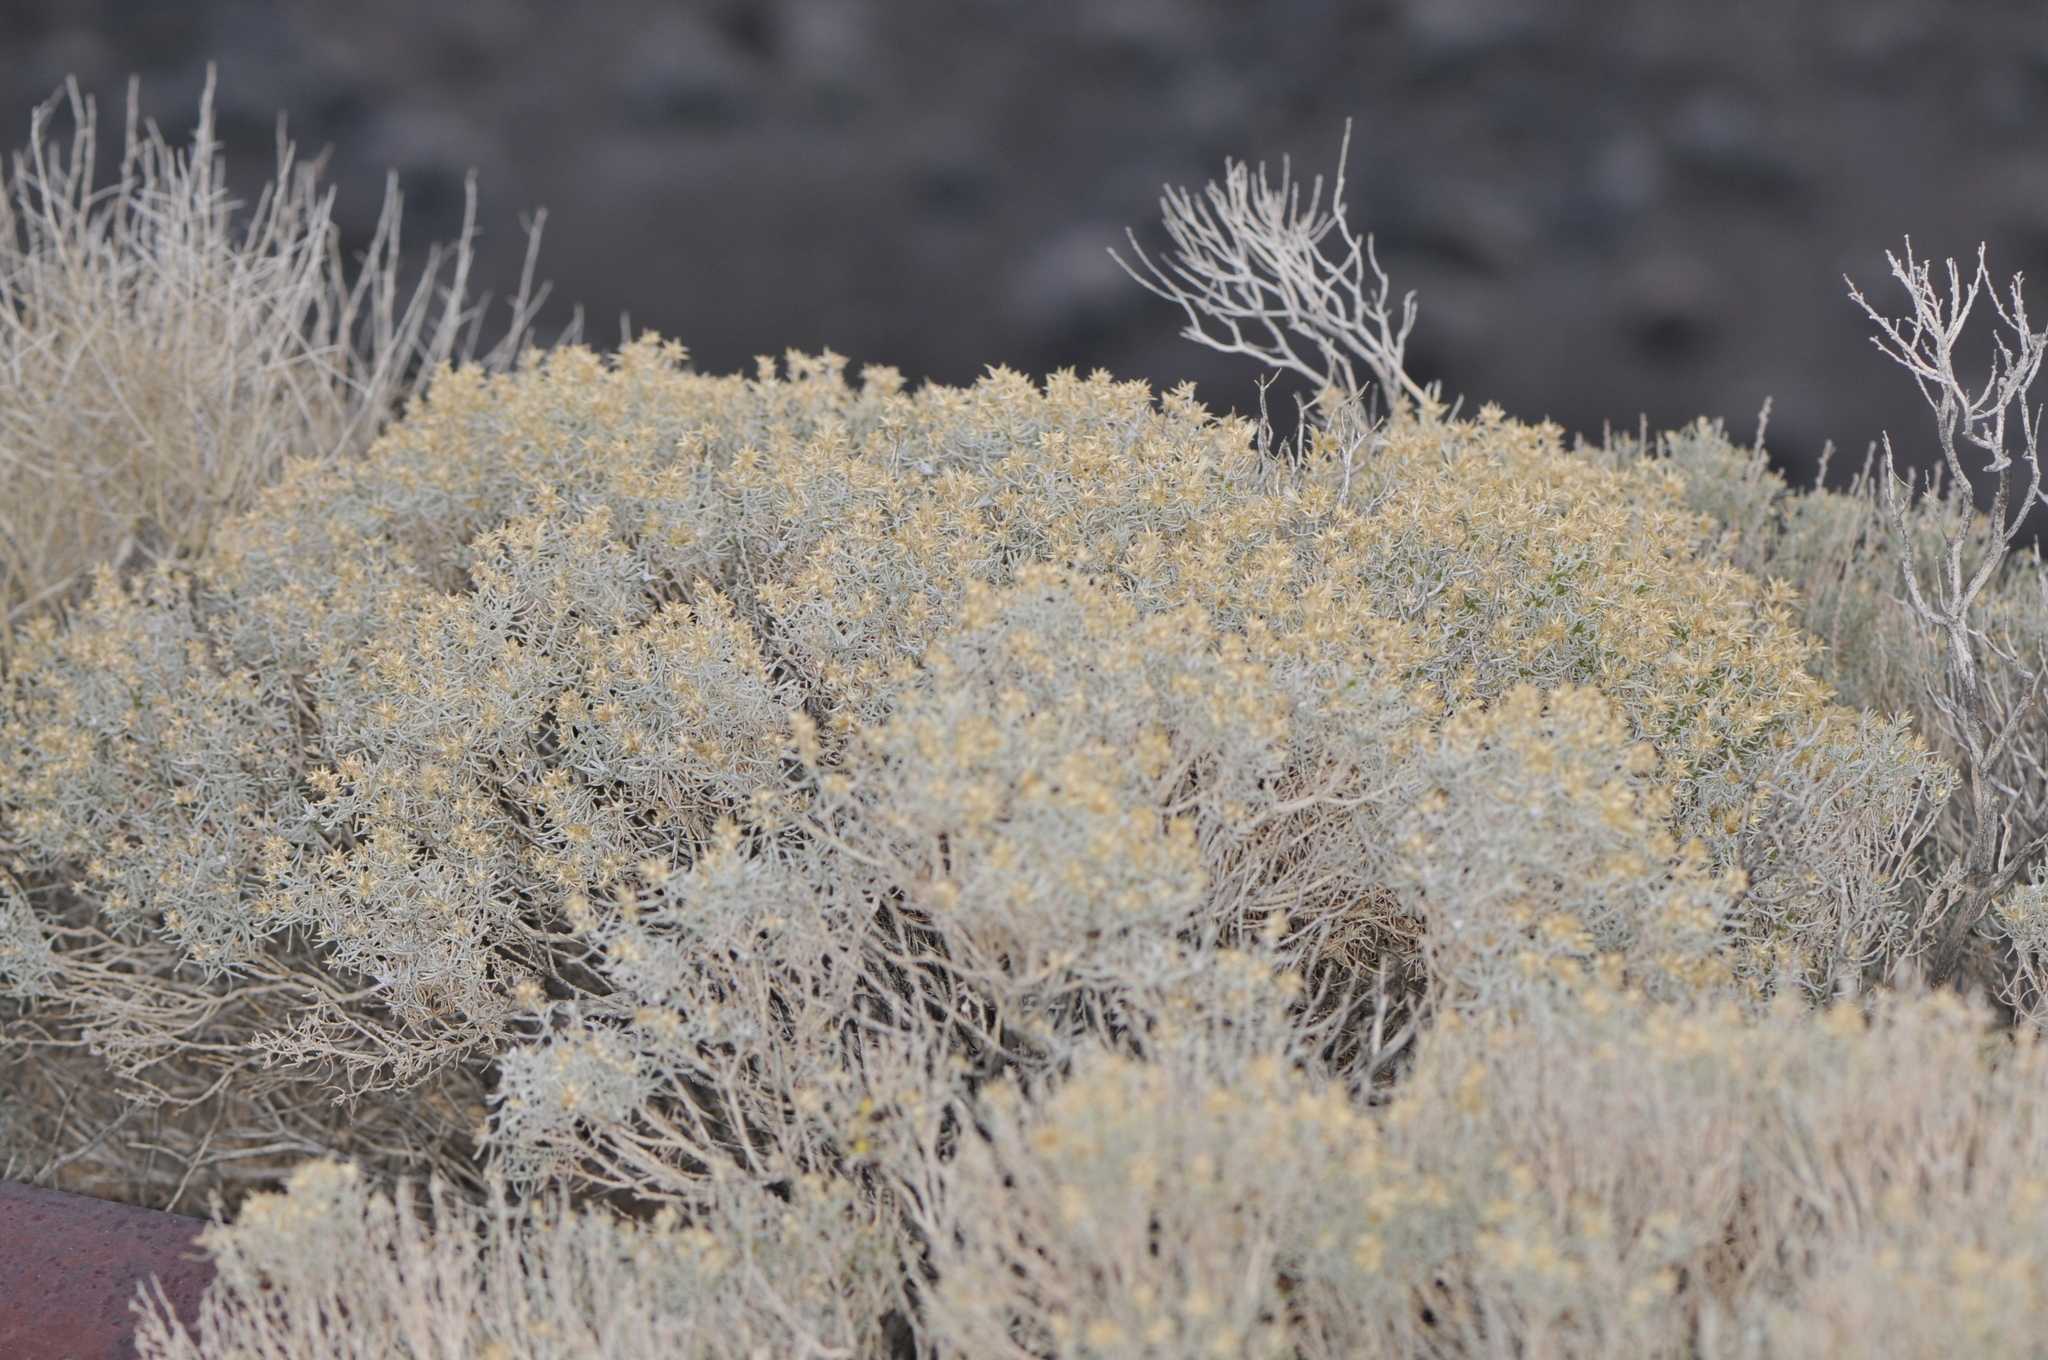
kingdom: Plantae
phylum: Tracheophyta
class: Magnoliopsida
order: Asterales
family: Asteraceae
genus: Ericameria
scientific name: Ericameria teretifolia
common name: Round-leaf rabbitbrush
